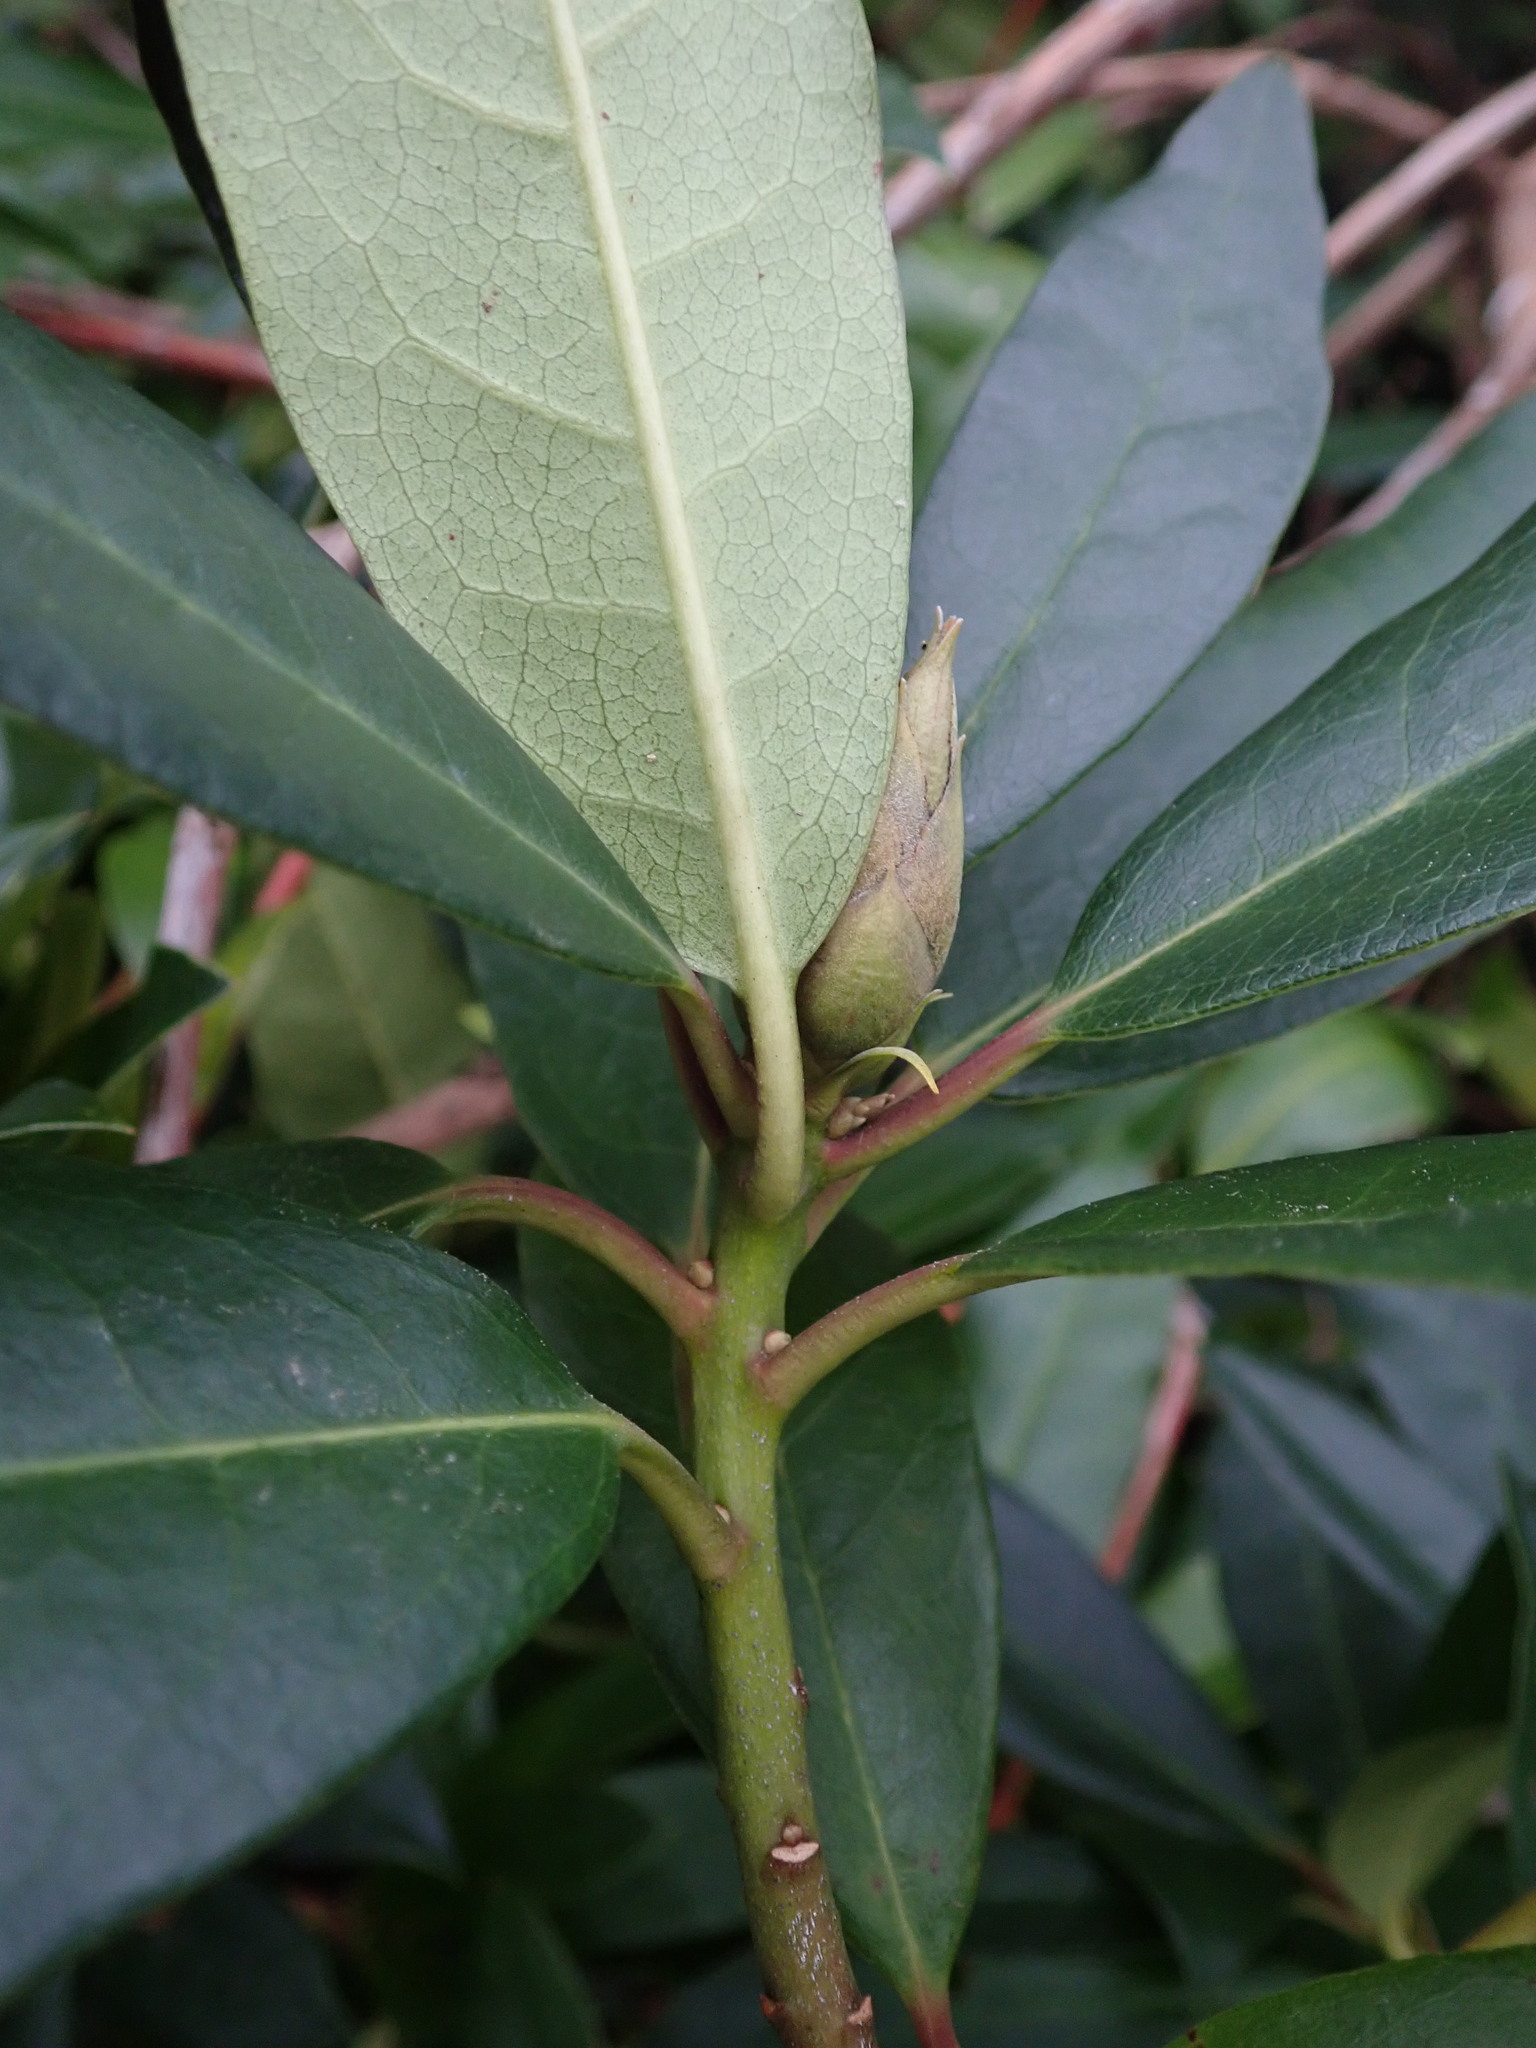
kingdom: Plantae
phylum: Tracheophyta
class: Magnoliopsida
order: Ericales
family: Ericaceae
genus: Rhododendron
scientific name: Rhododendron ponticum
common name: Rhododendron
